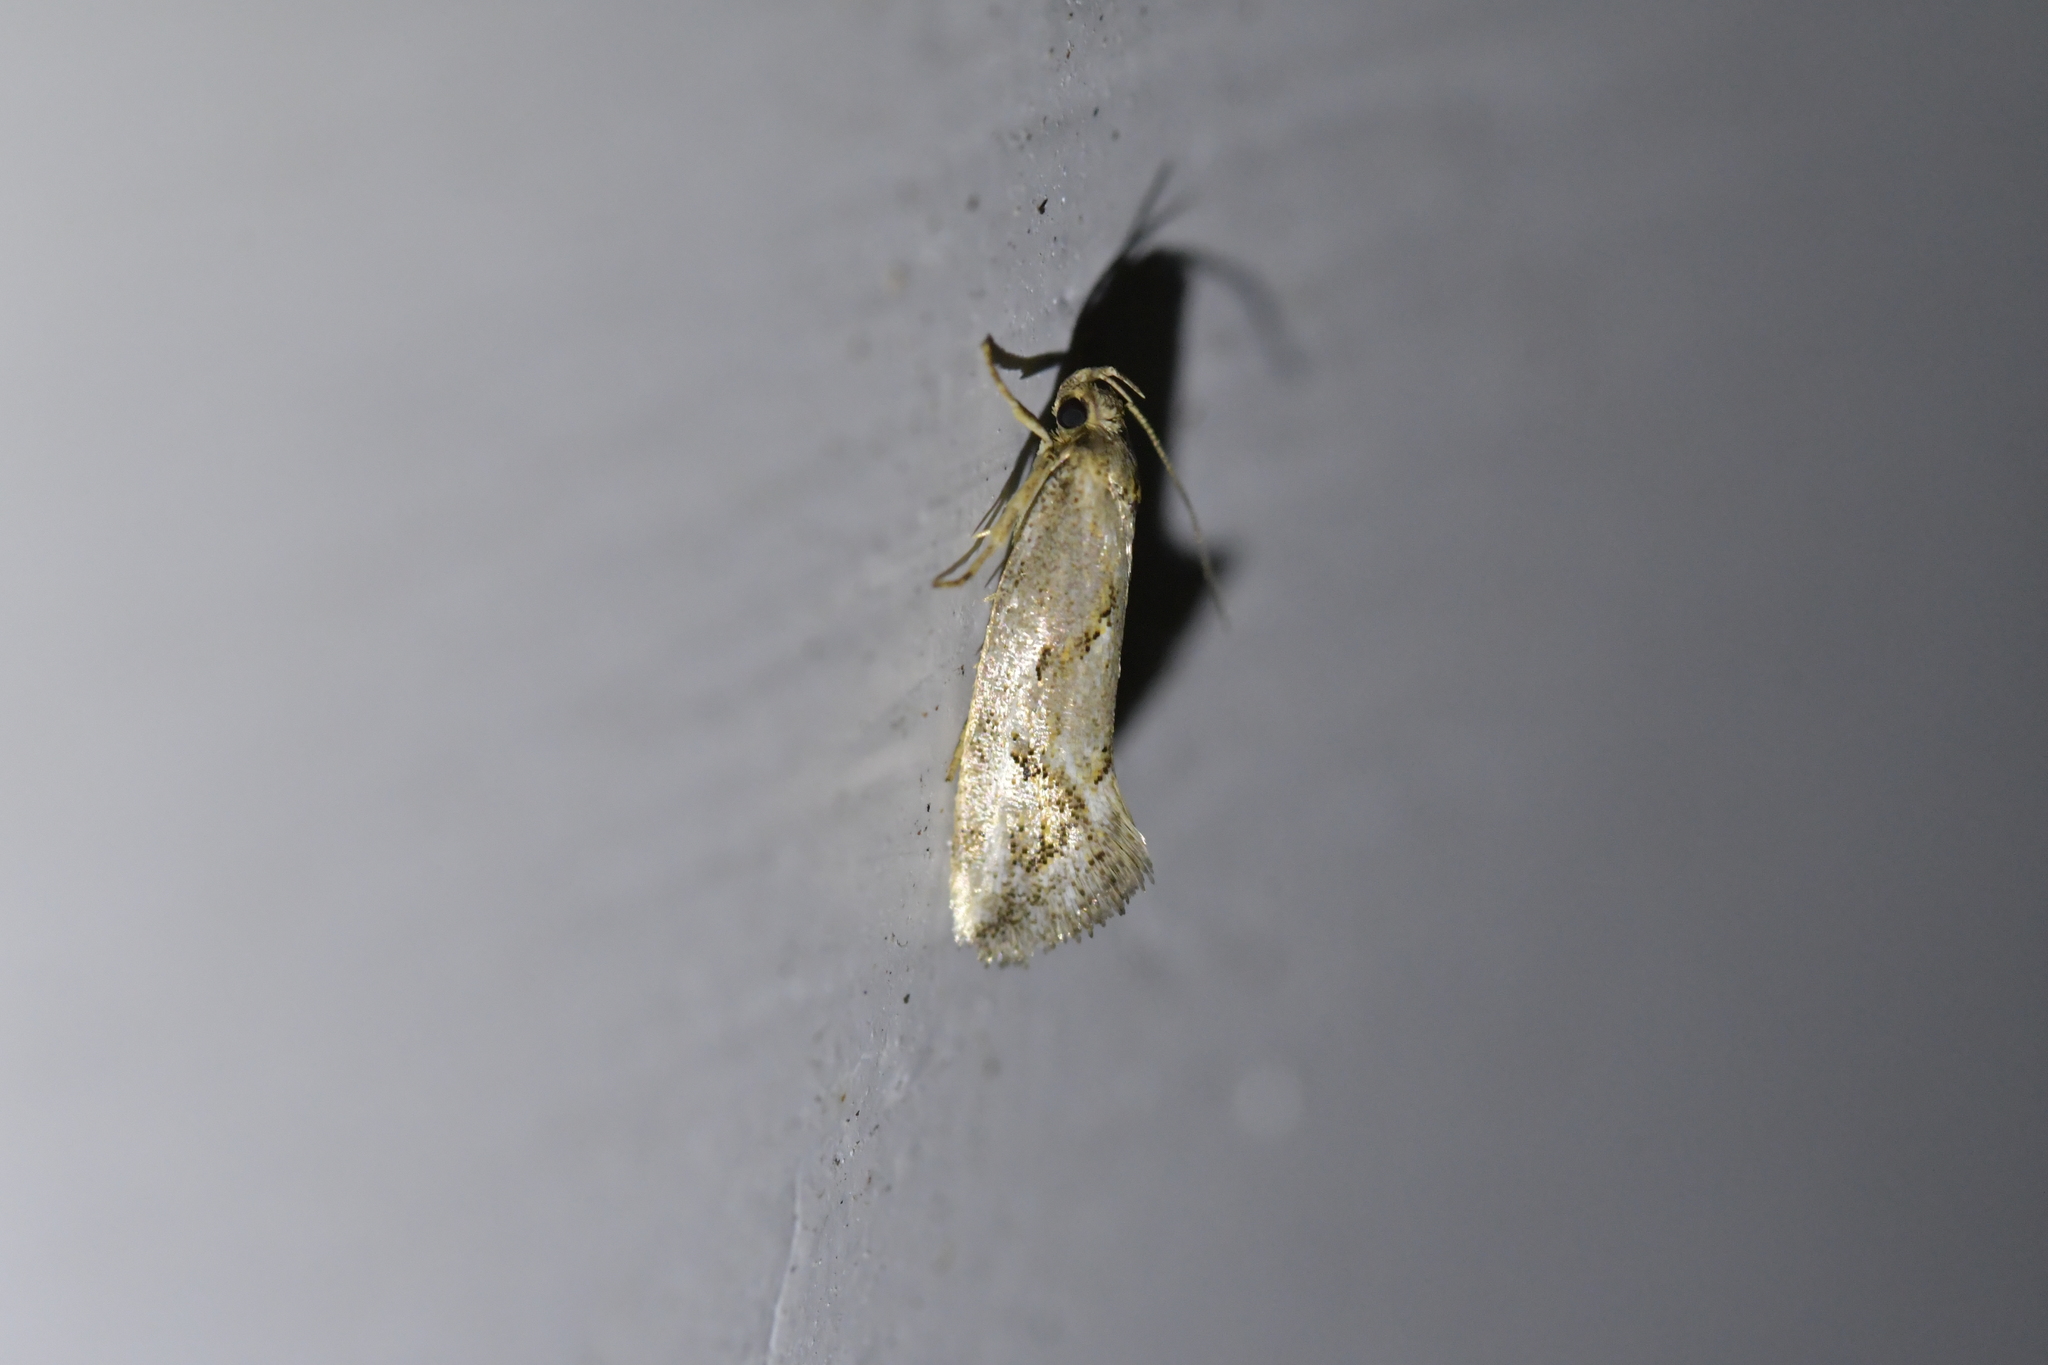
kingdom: Animalia
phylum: Arthropoda
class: Insecta
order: Lepidoptera
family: Oecophoridae
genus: Tingena
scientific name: Tingena hemimochla
